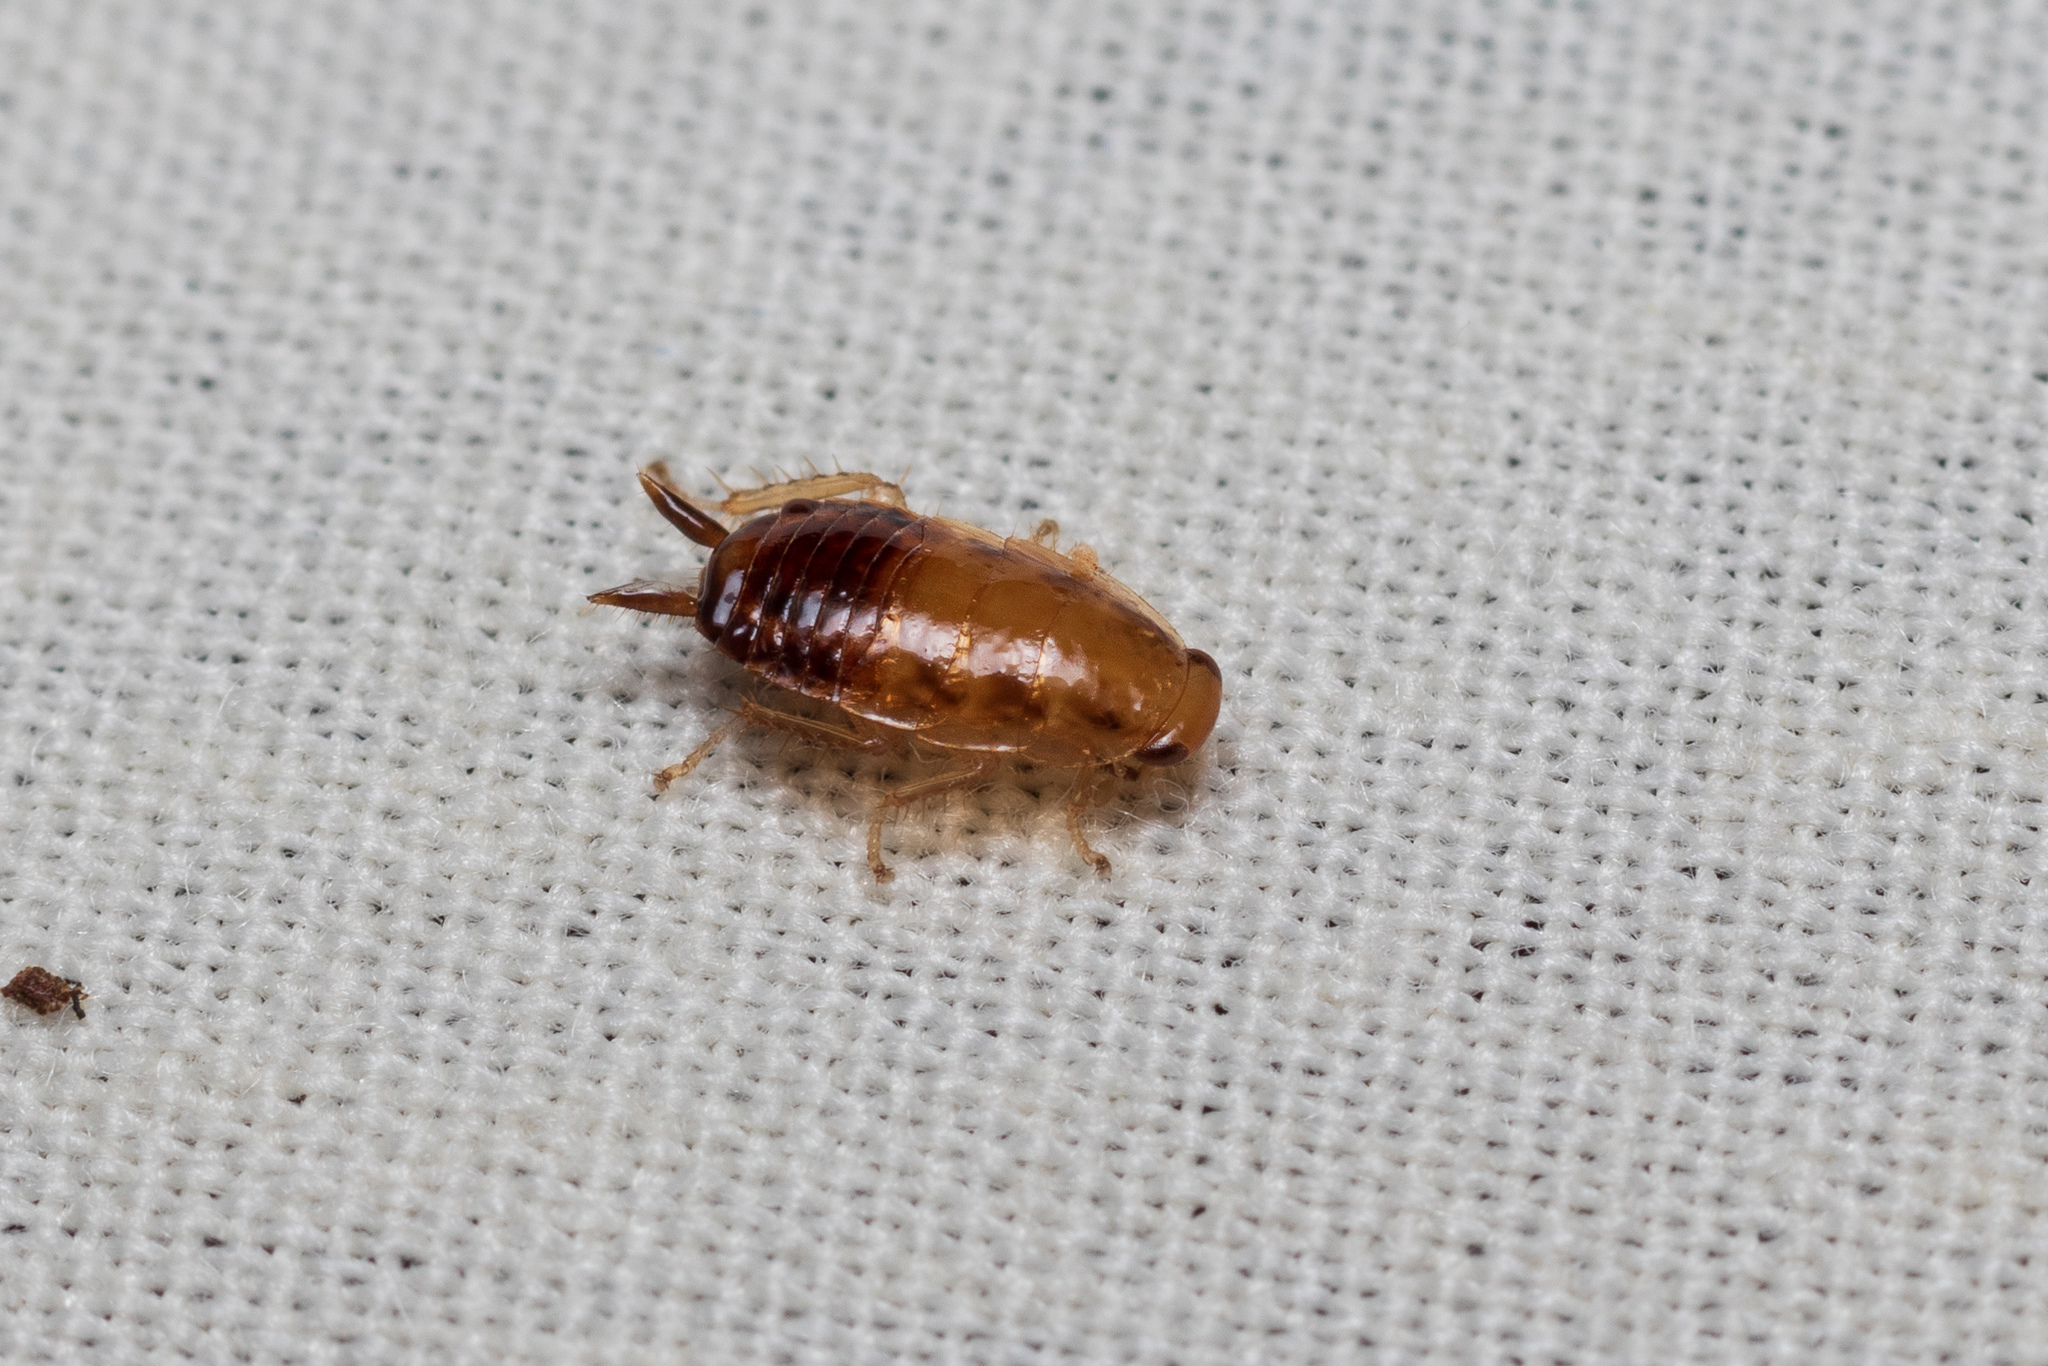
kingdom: Animalia
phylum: Arthropoda
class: Insecta
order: Blattodea
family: Ectobiidae
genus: Blattella
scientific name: Blattella germanica
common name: German cockroach
